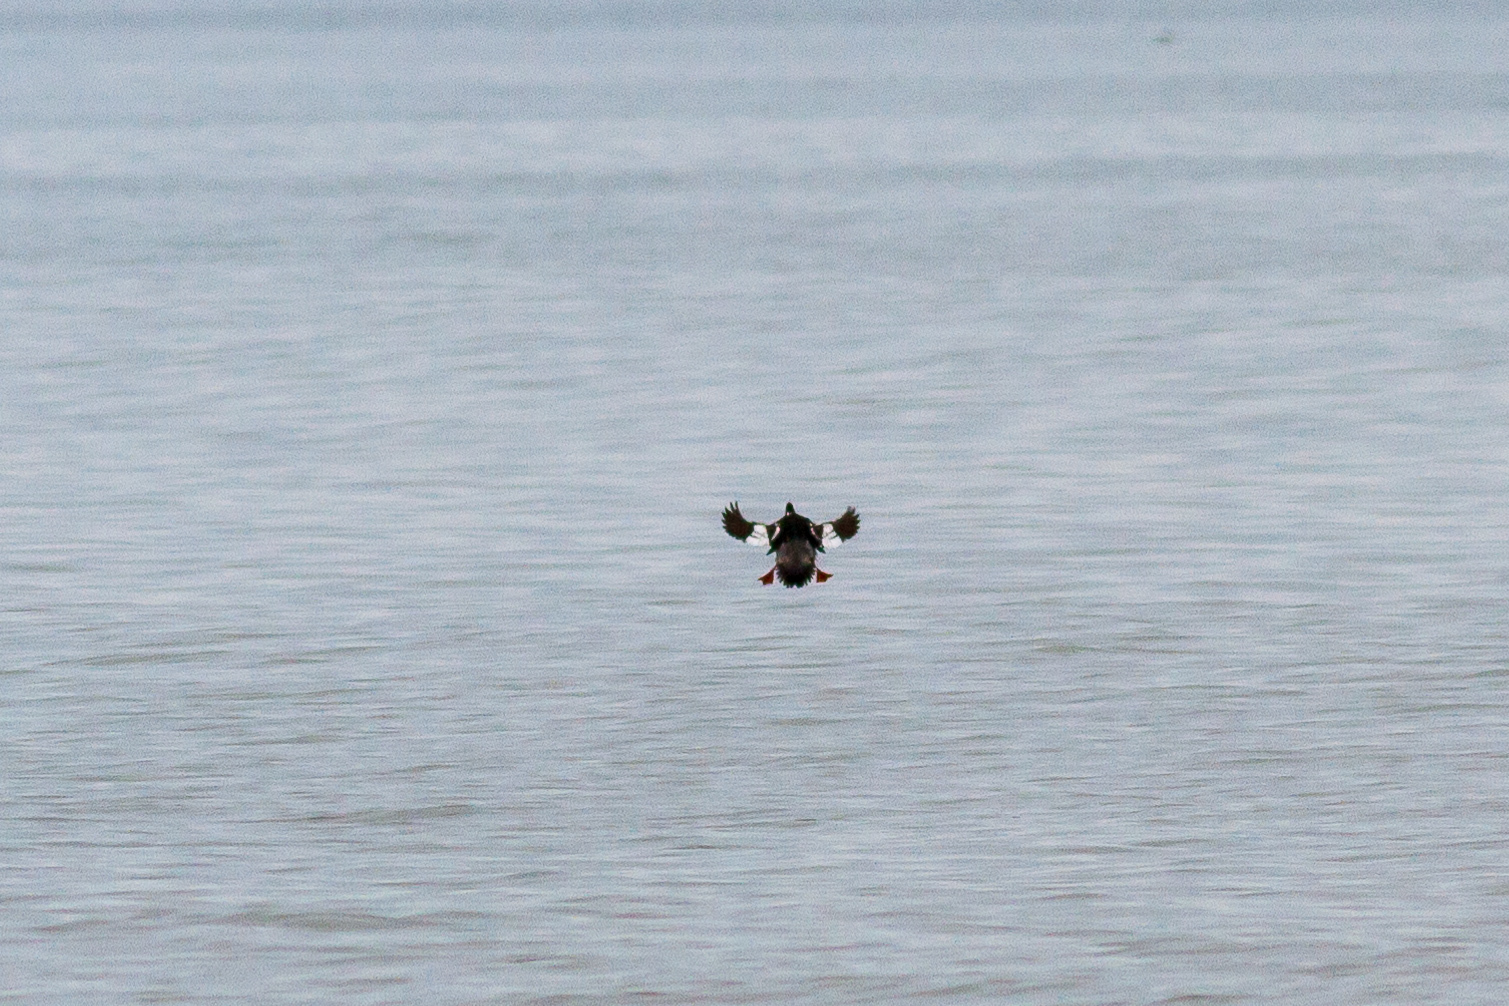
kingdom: Animalia
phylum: Chordata
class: Aves
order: Anseriformes
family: Anatidae
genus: Bucephala
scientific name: Bucephala clangula
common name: Common goldeneye
